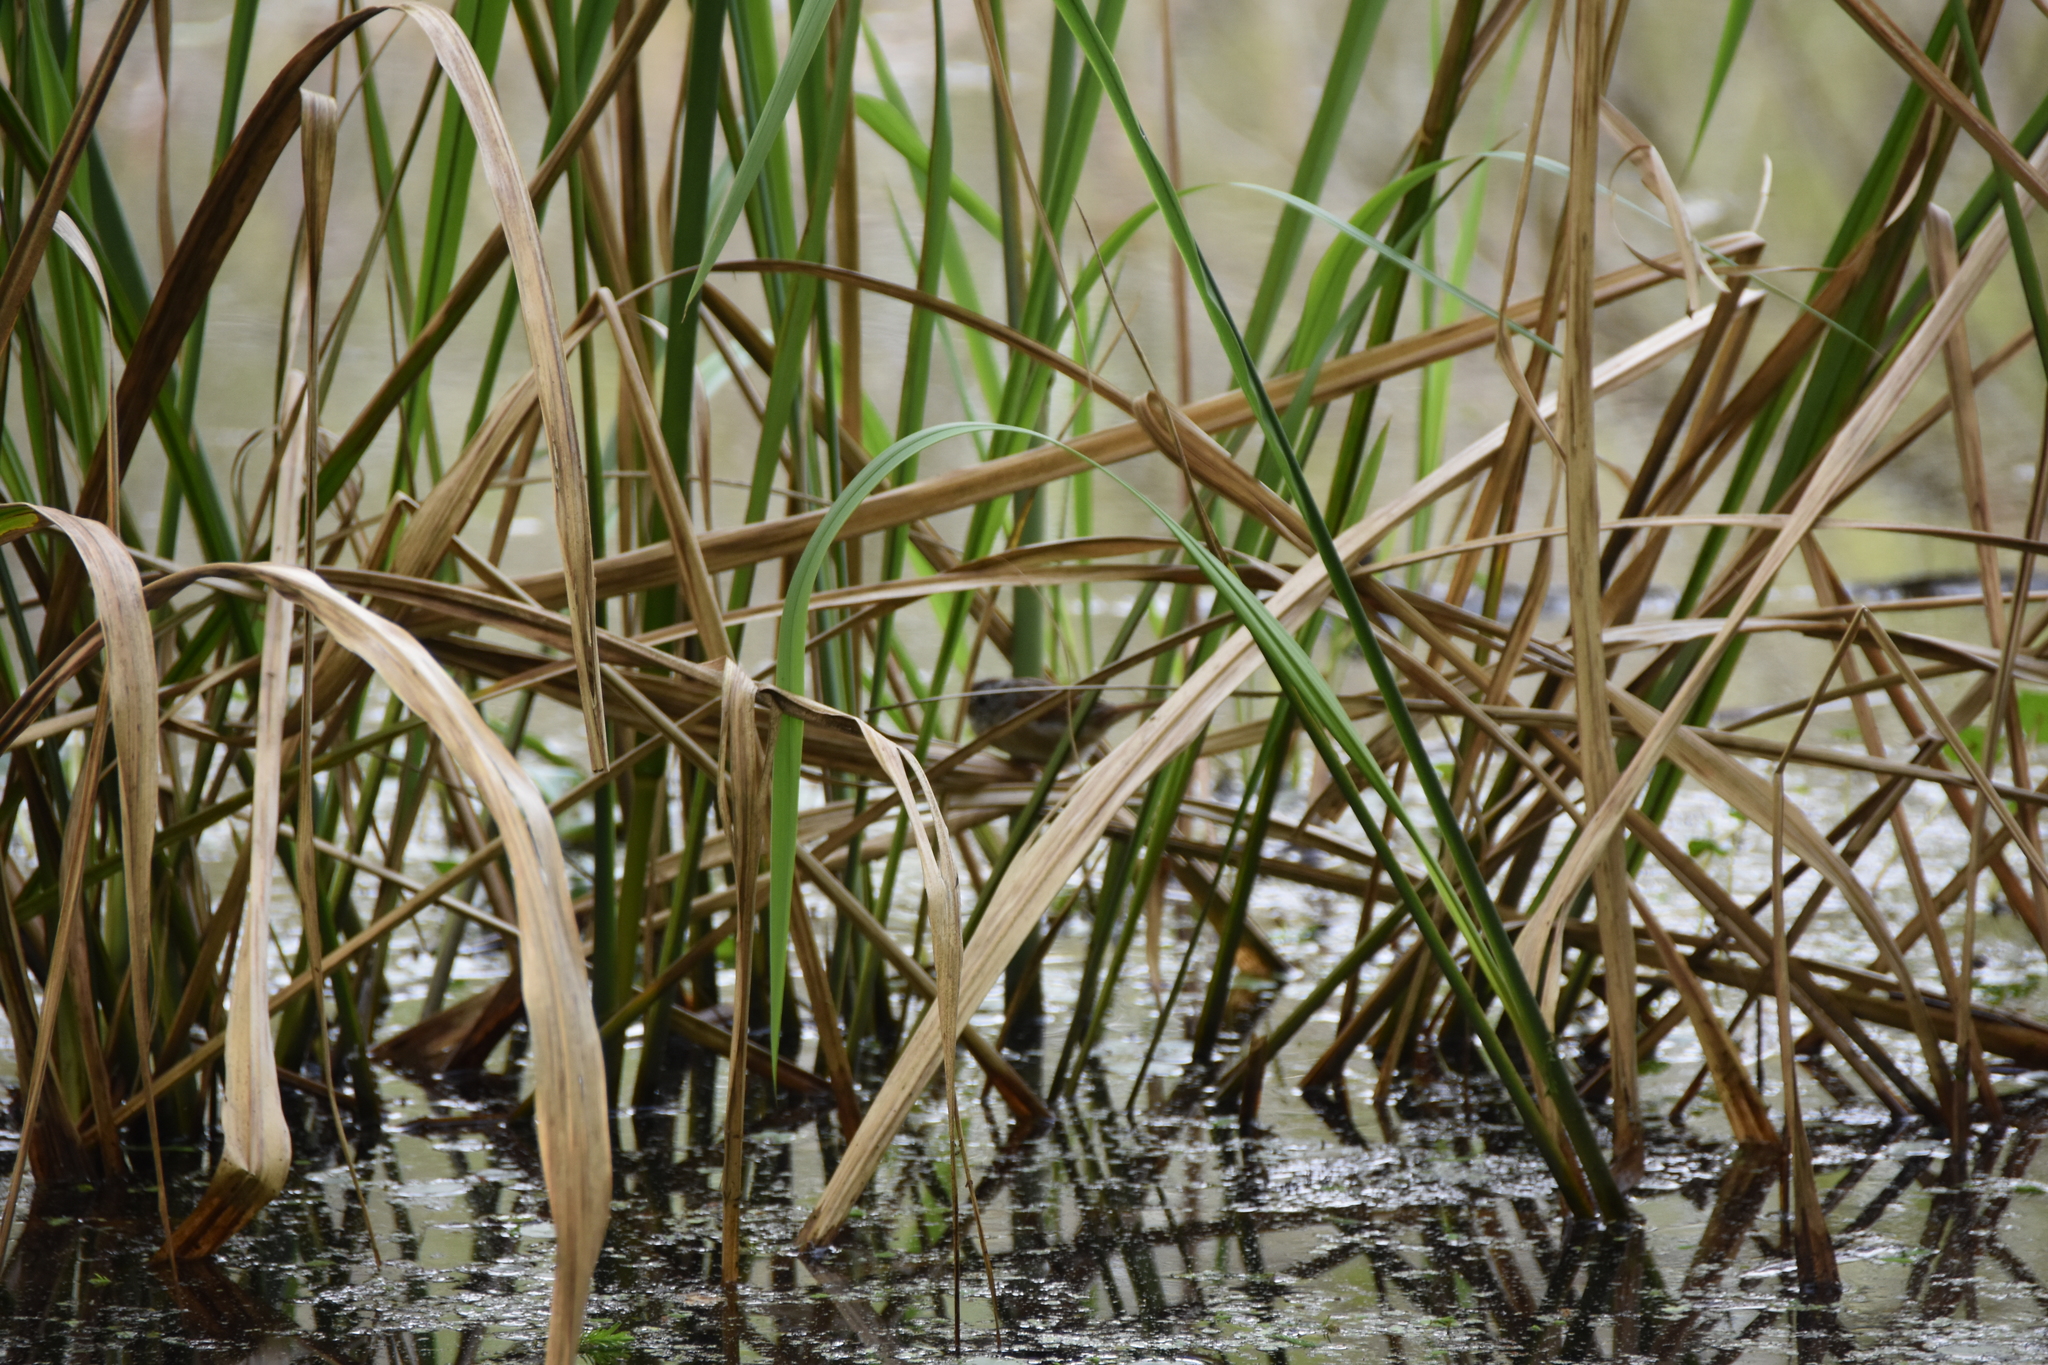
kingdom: Animalia
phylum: Chordata
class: Aves
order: Passeriformes
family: Passerellidae
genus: Melospiza
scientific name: Melospiza georgiana
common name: Swamp sparrow
